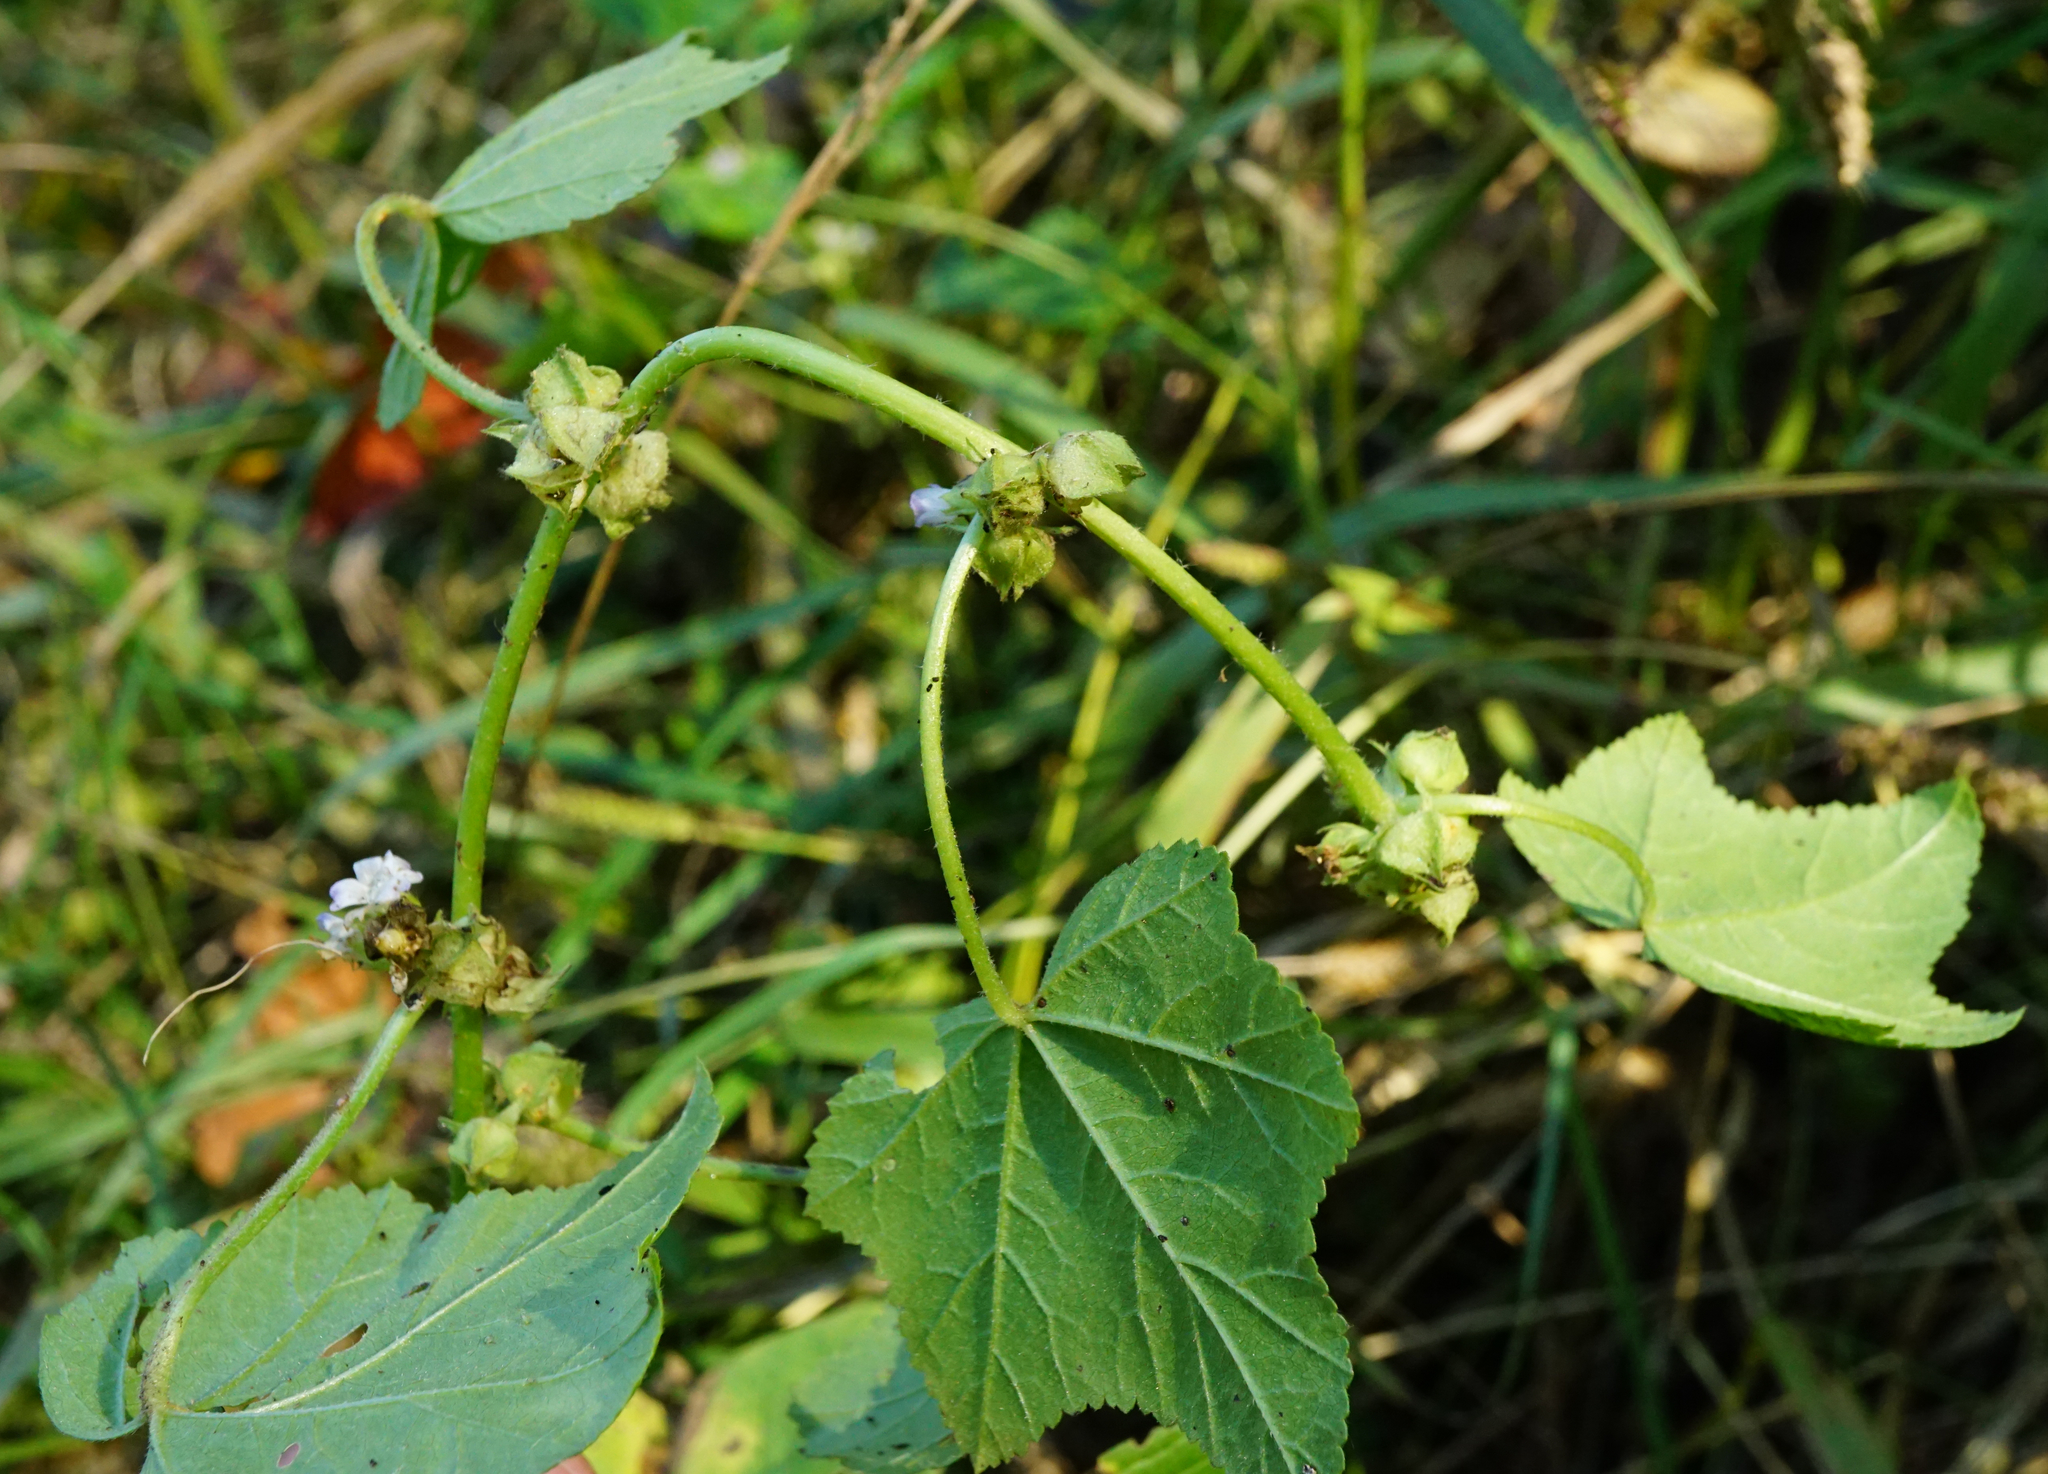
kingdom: Plantae
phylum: Tracheophyta
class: Magnoliopsida
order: Malvales
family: Malvaceae
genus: Malva
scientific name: Malva verticillata
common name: Chinese mallow
